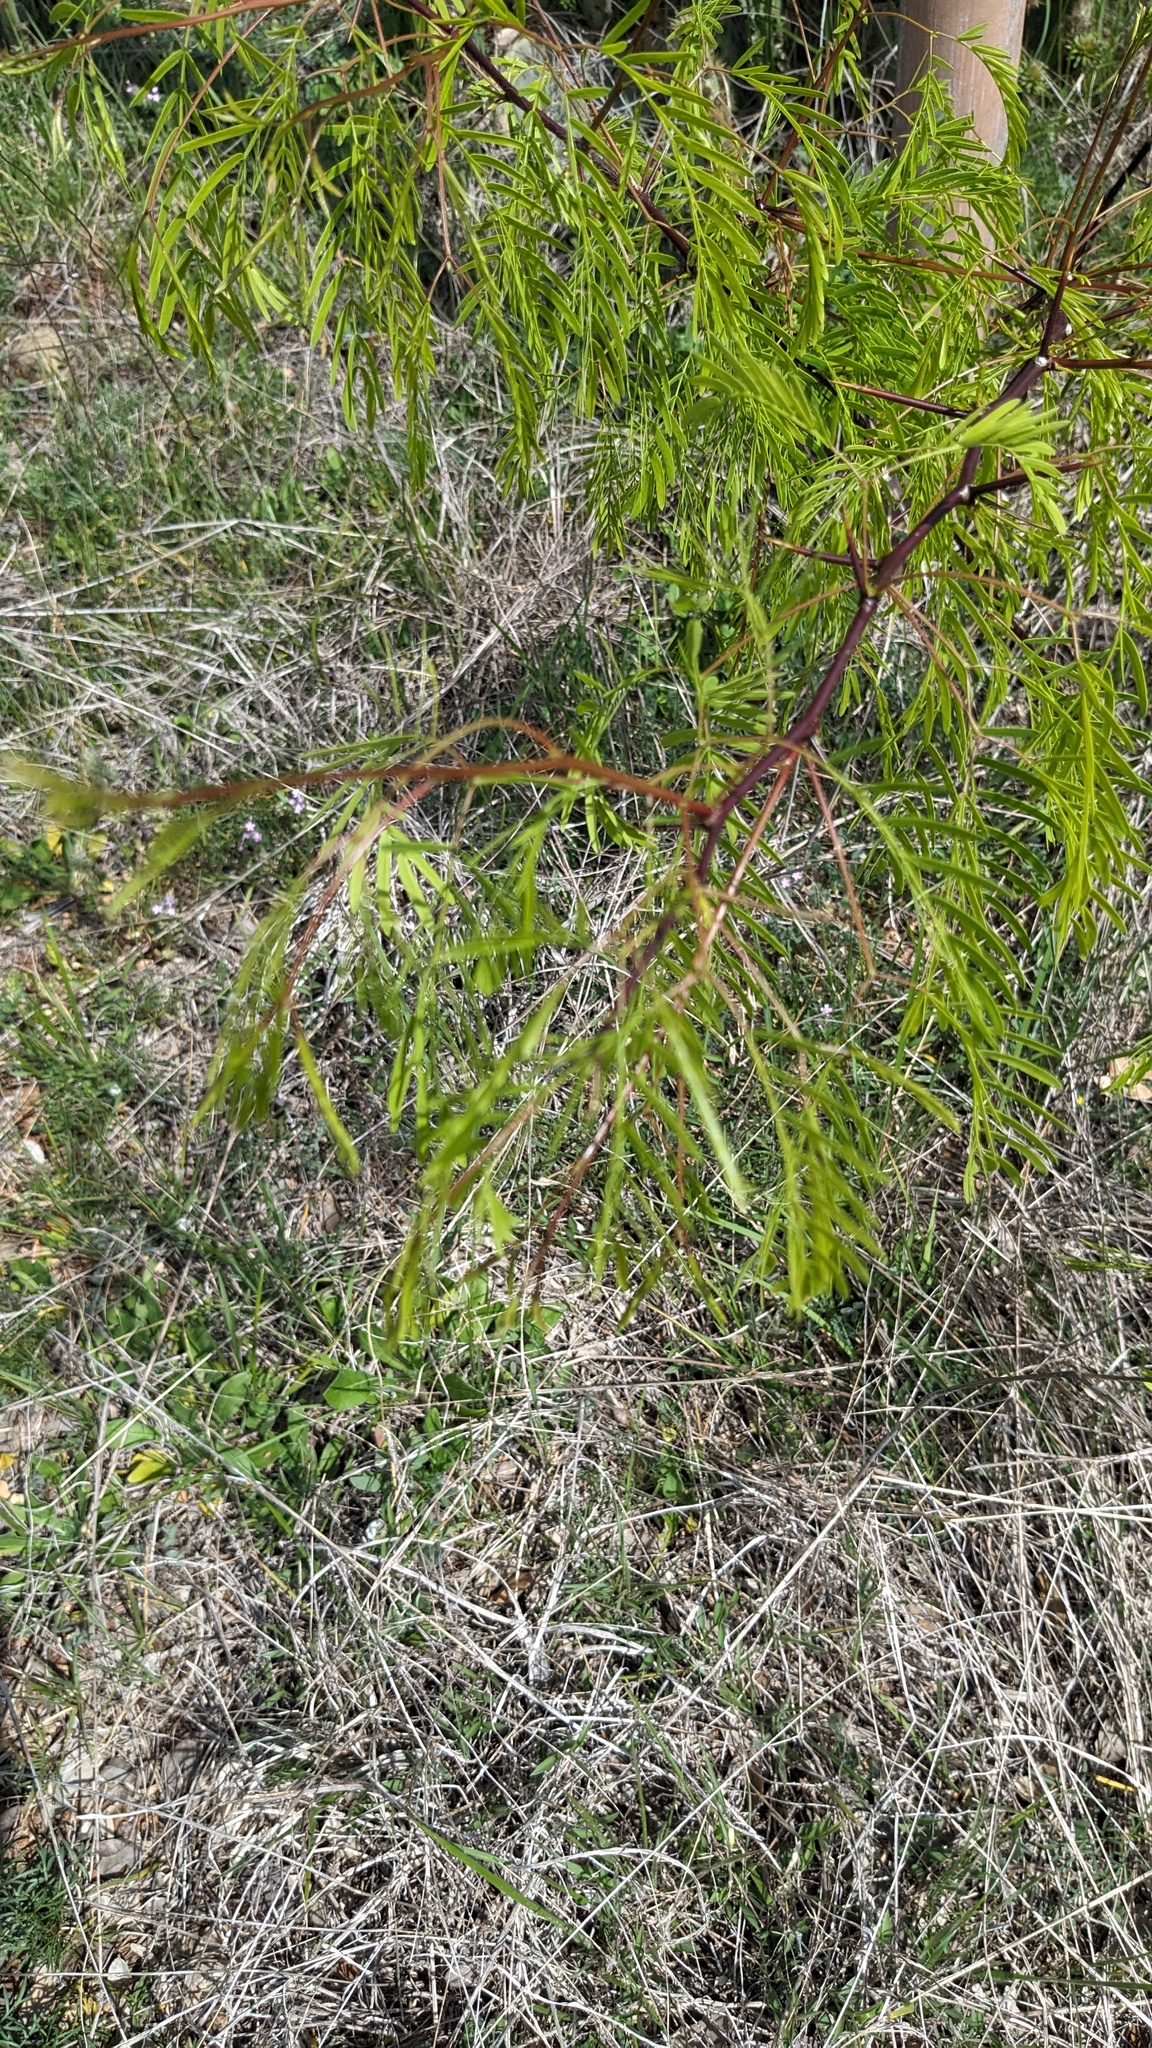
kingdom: Plantae
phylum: Tracheophyta
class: Magnoliopsida
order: Fabales
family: Fabaceae
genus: Prosopis
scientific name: Prosopis glandulosa
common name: Honey mesquite
